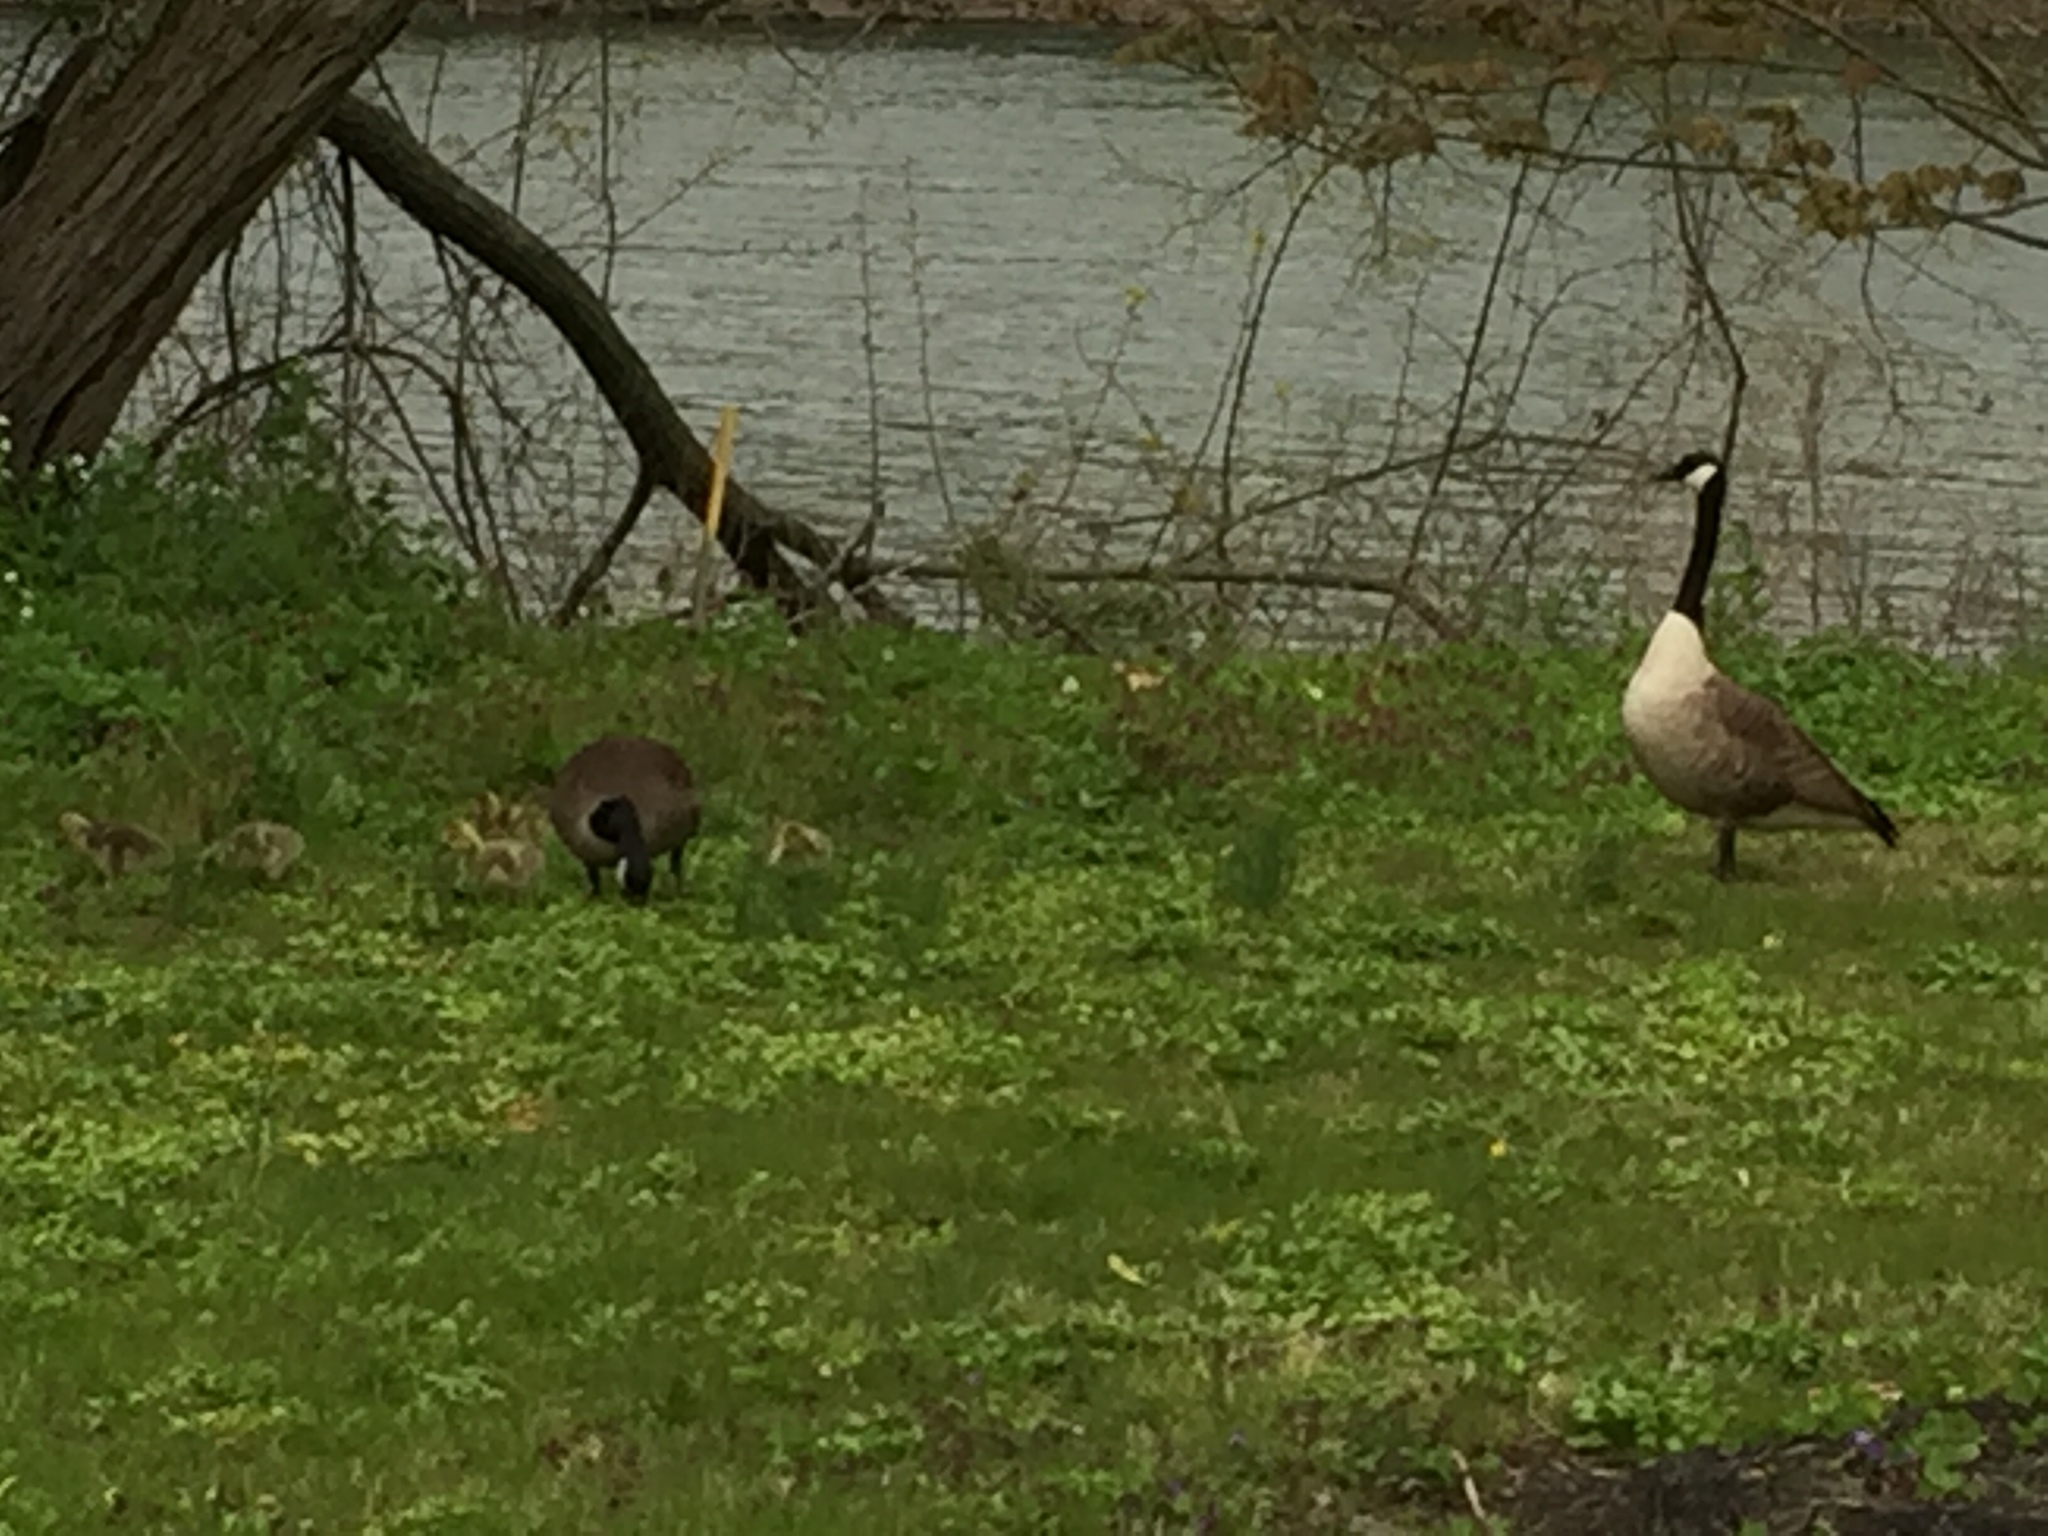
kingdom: Animalia
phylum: Chordata
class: Aves
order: Anseriformes
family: Anatidae
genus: Branta
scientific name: Branta canadensis
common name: Canada goose
